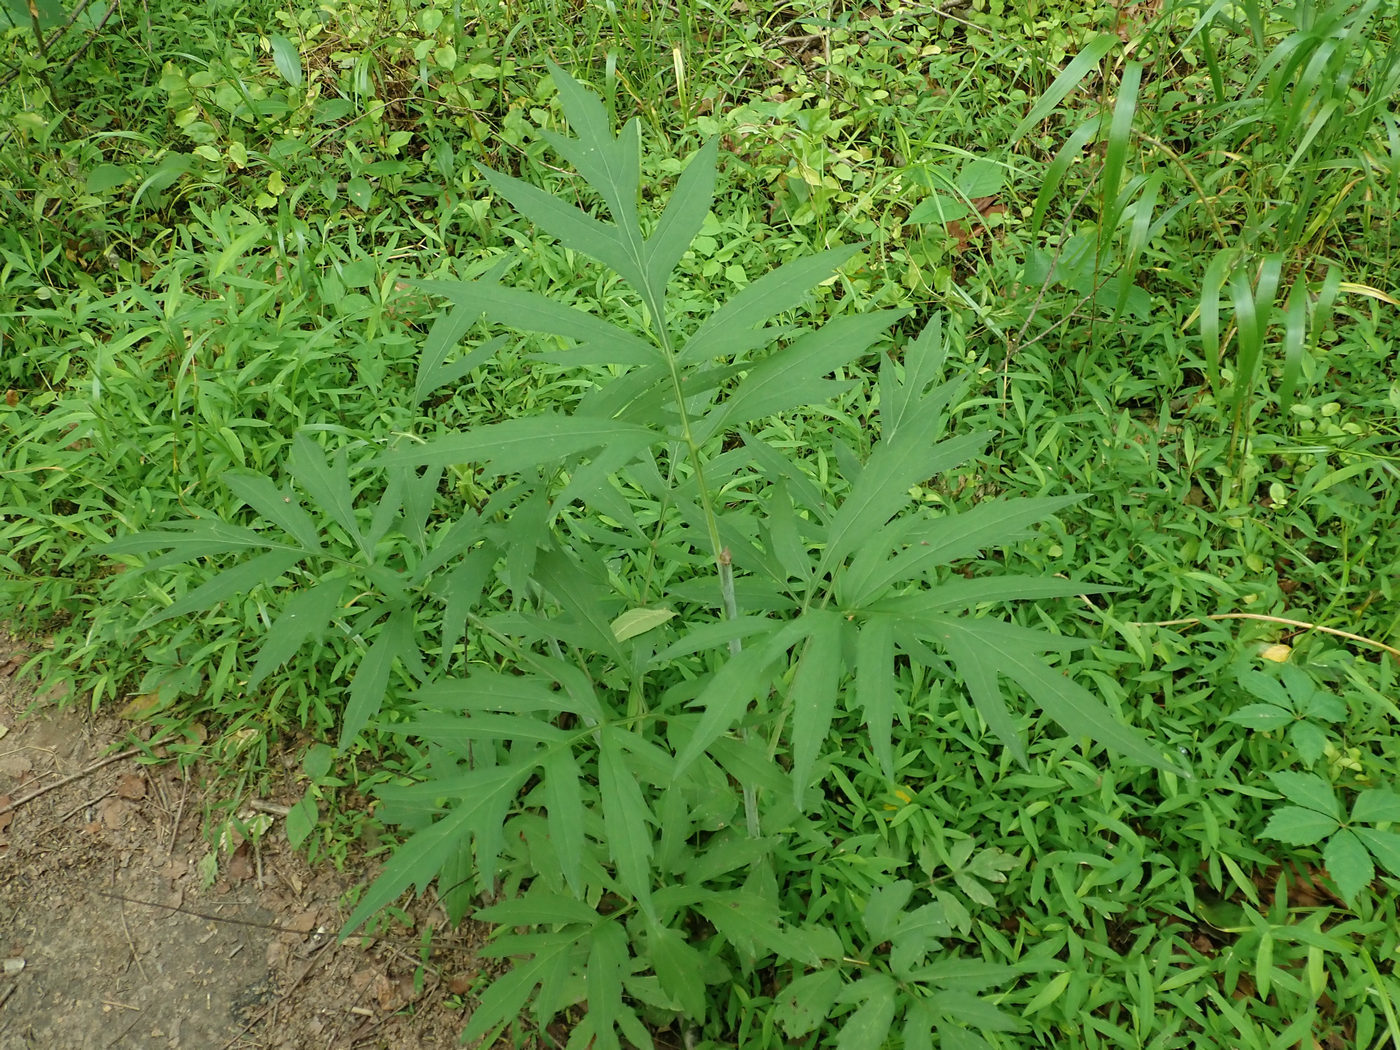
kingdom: Plantae
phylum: Tracheophyta
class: Magnoliopsida
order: Asterales
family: Asteraceae
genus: Rudbeckia
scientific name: Rudbeckia laciniata
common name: Coneflower
